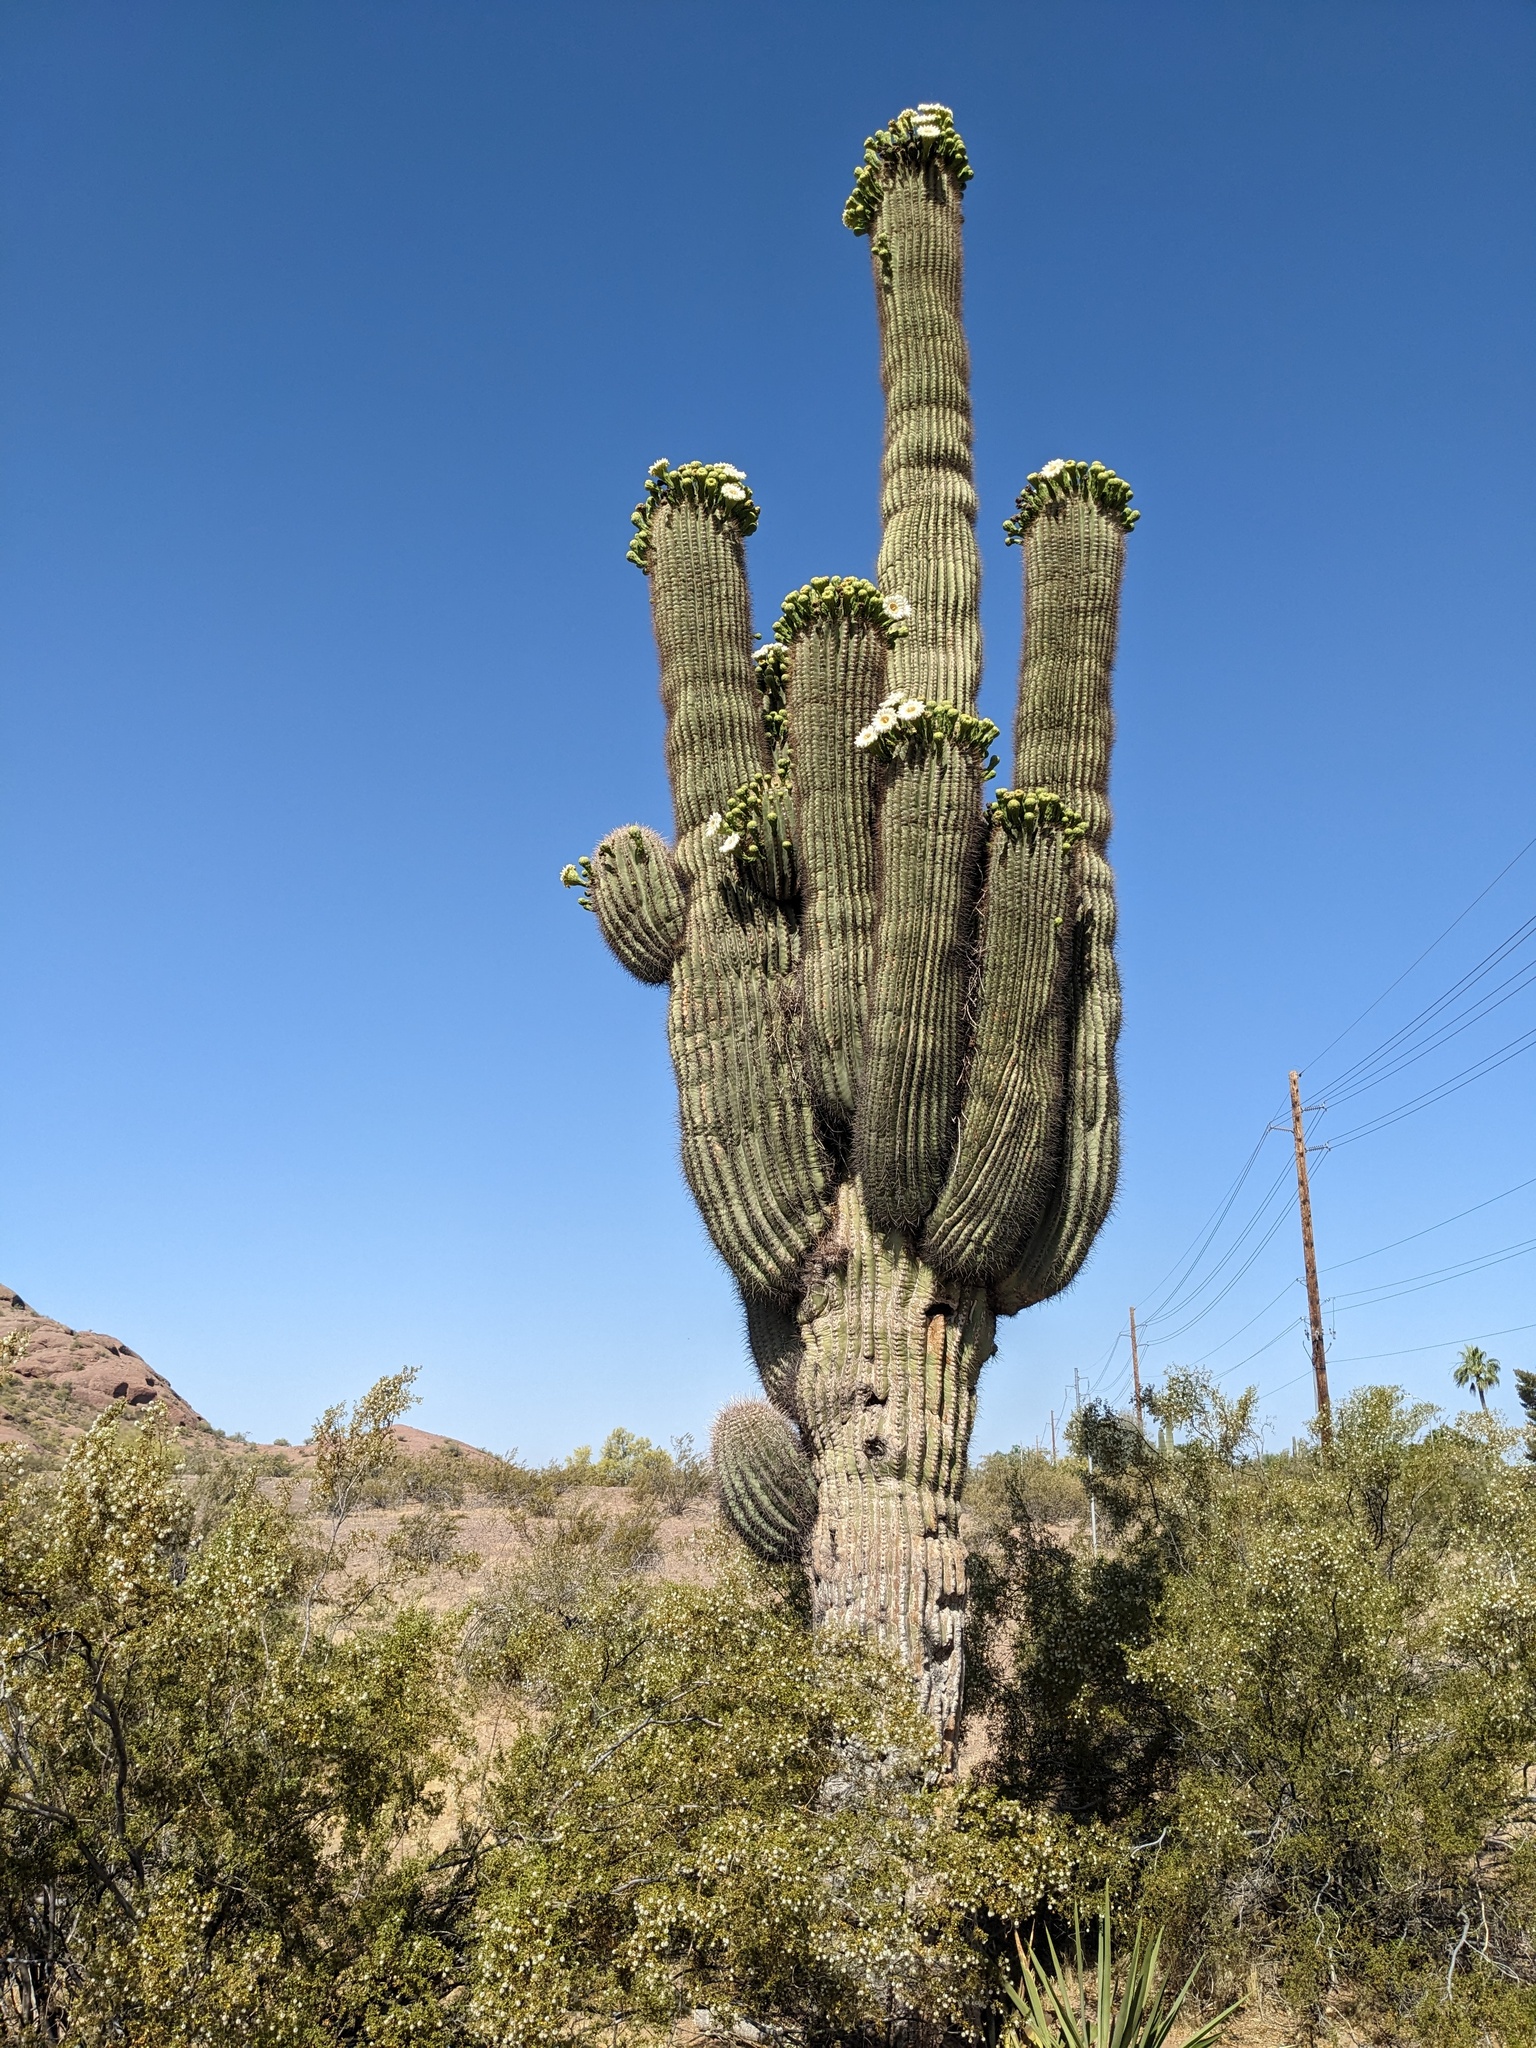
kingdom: Plantae
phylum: Tracheophyta
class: Magnoliopsida
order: Caryophyllales
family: Cactaceae
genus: Carnegiea
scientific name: Carnegiea gigantea
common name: Saguaro
